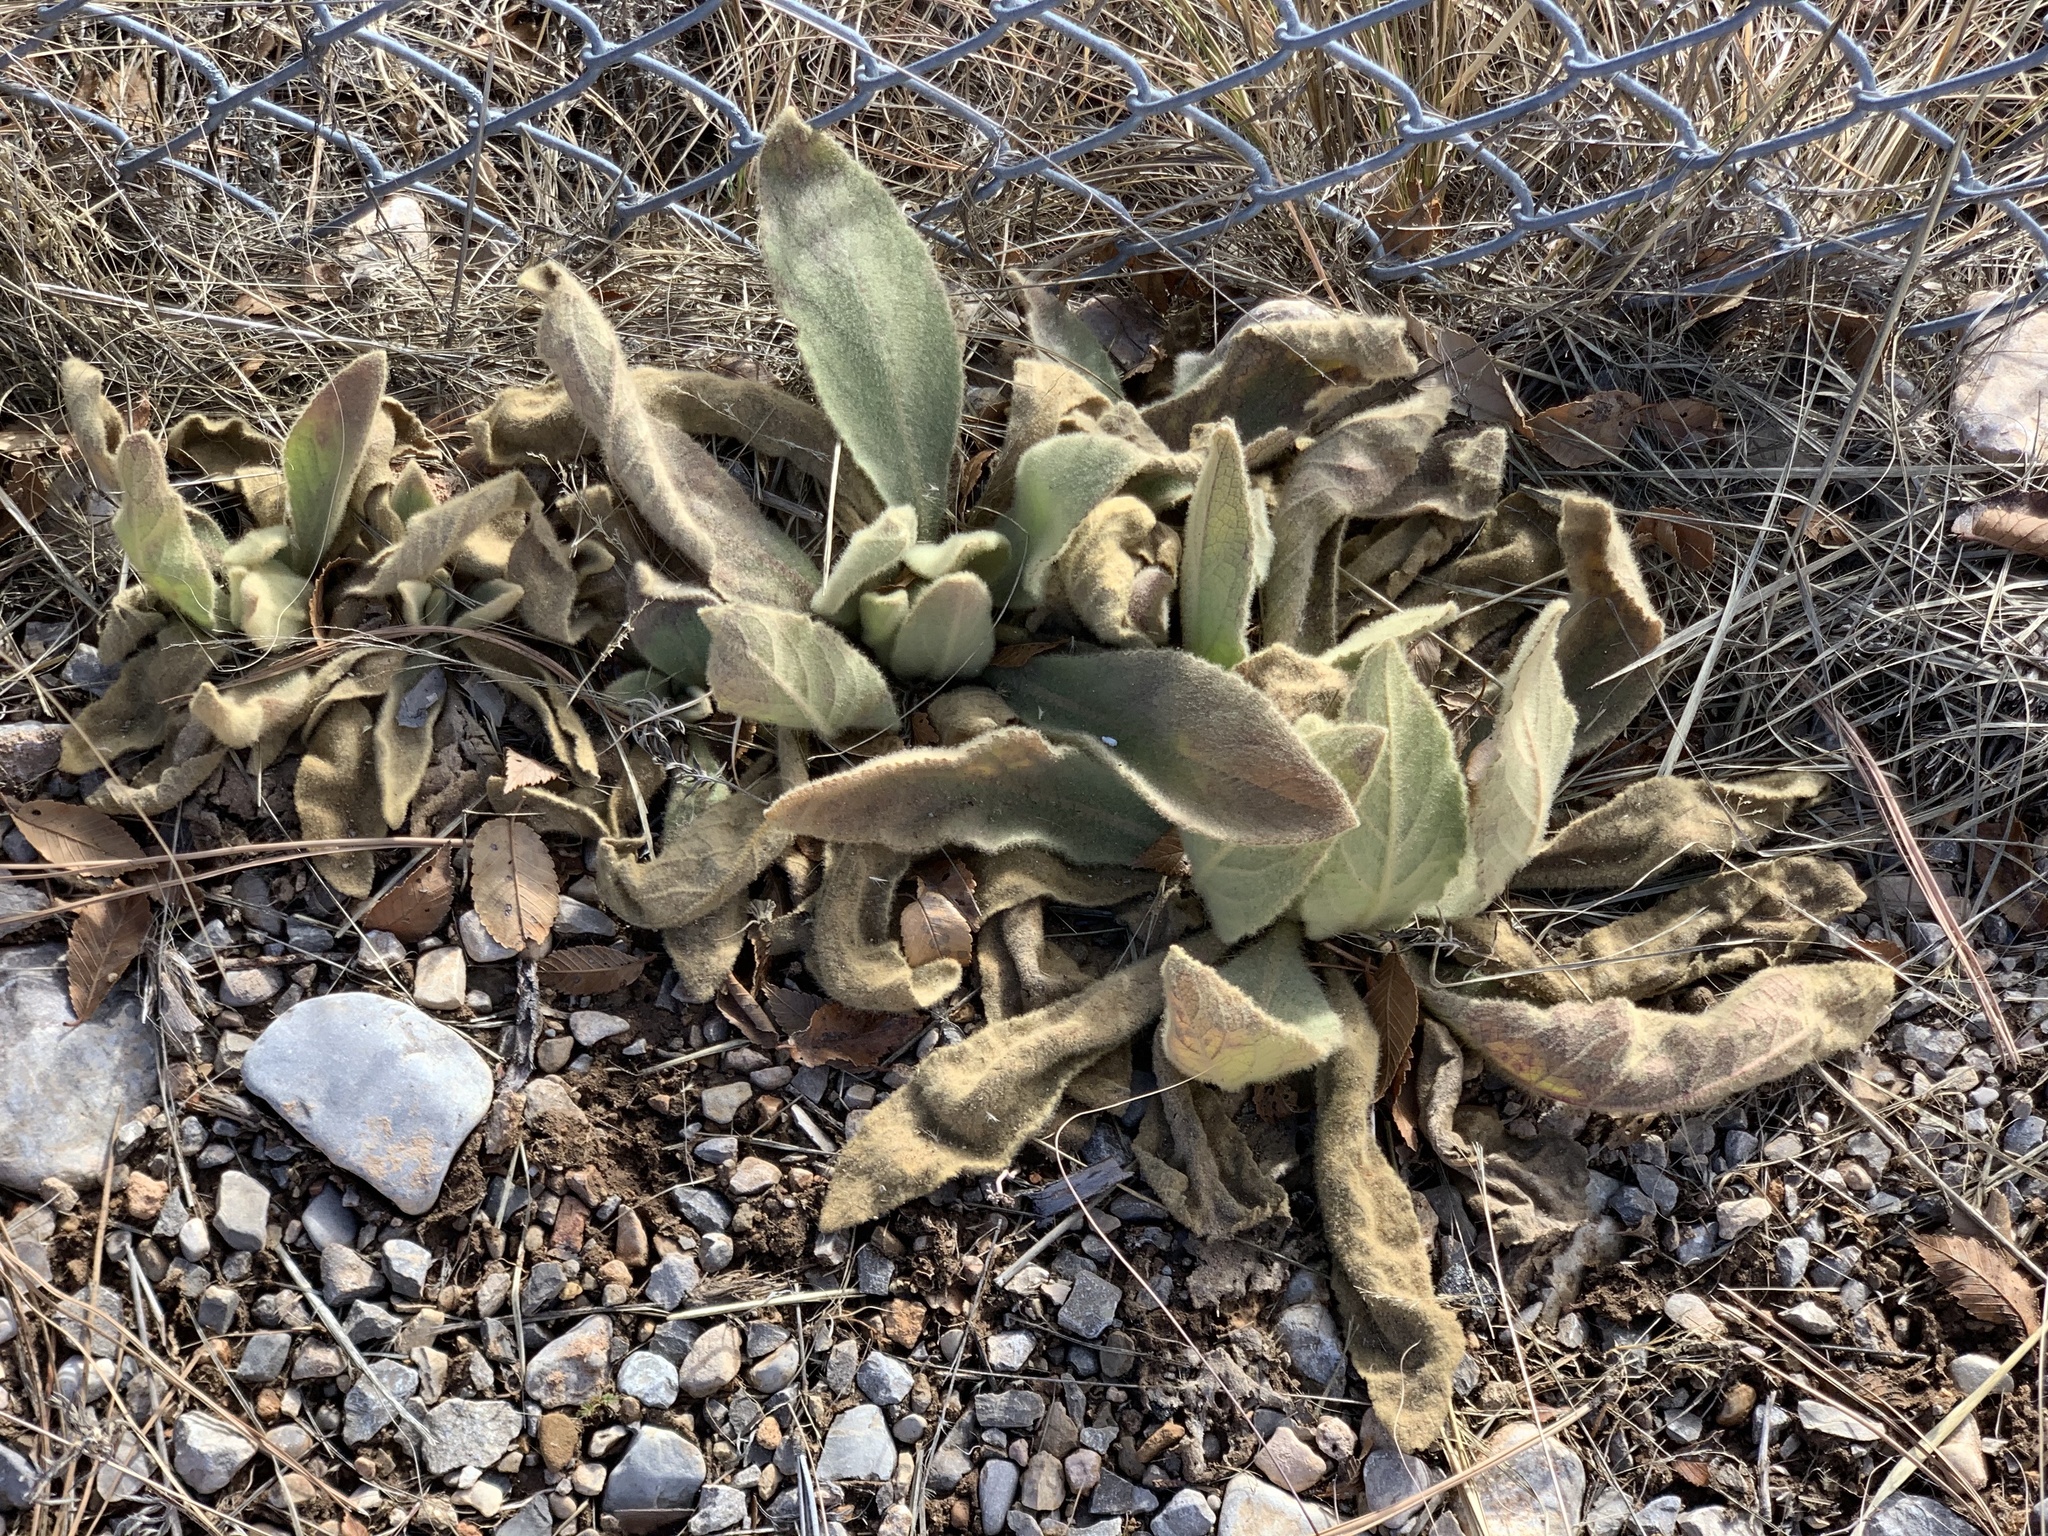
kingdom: Plantae
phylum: Tracheophyta
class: Magnoliopsida
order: Lamiales
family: Scrophulariaceae
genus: Verbascum
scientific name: Verbascum thapsus
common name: Common mullein
